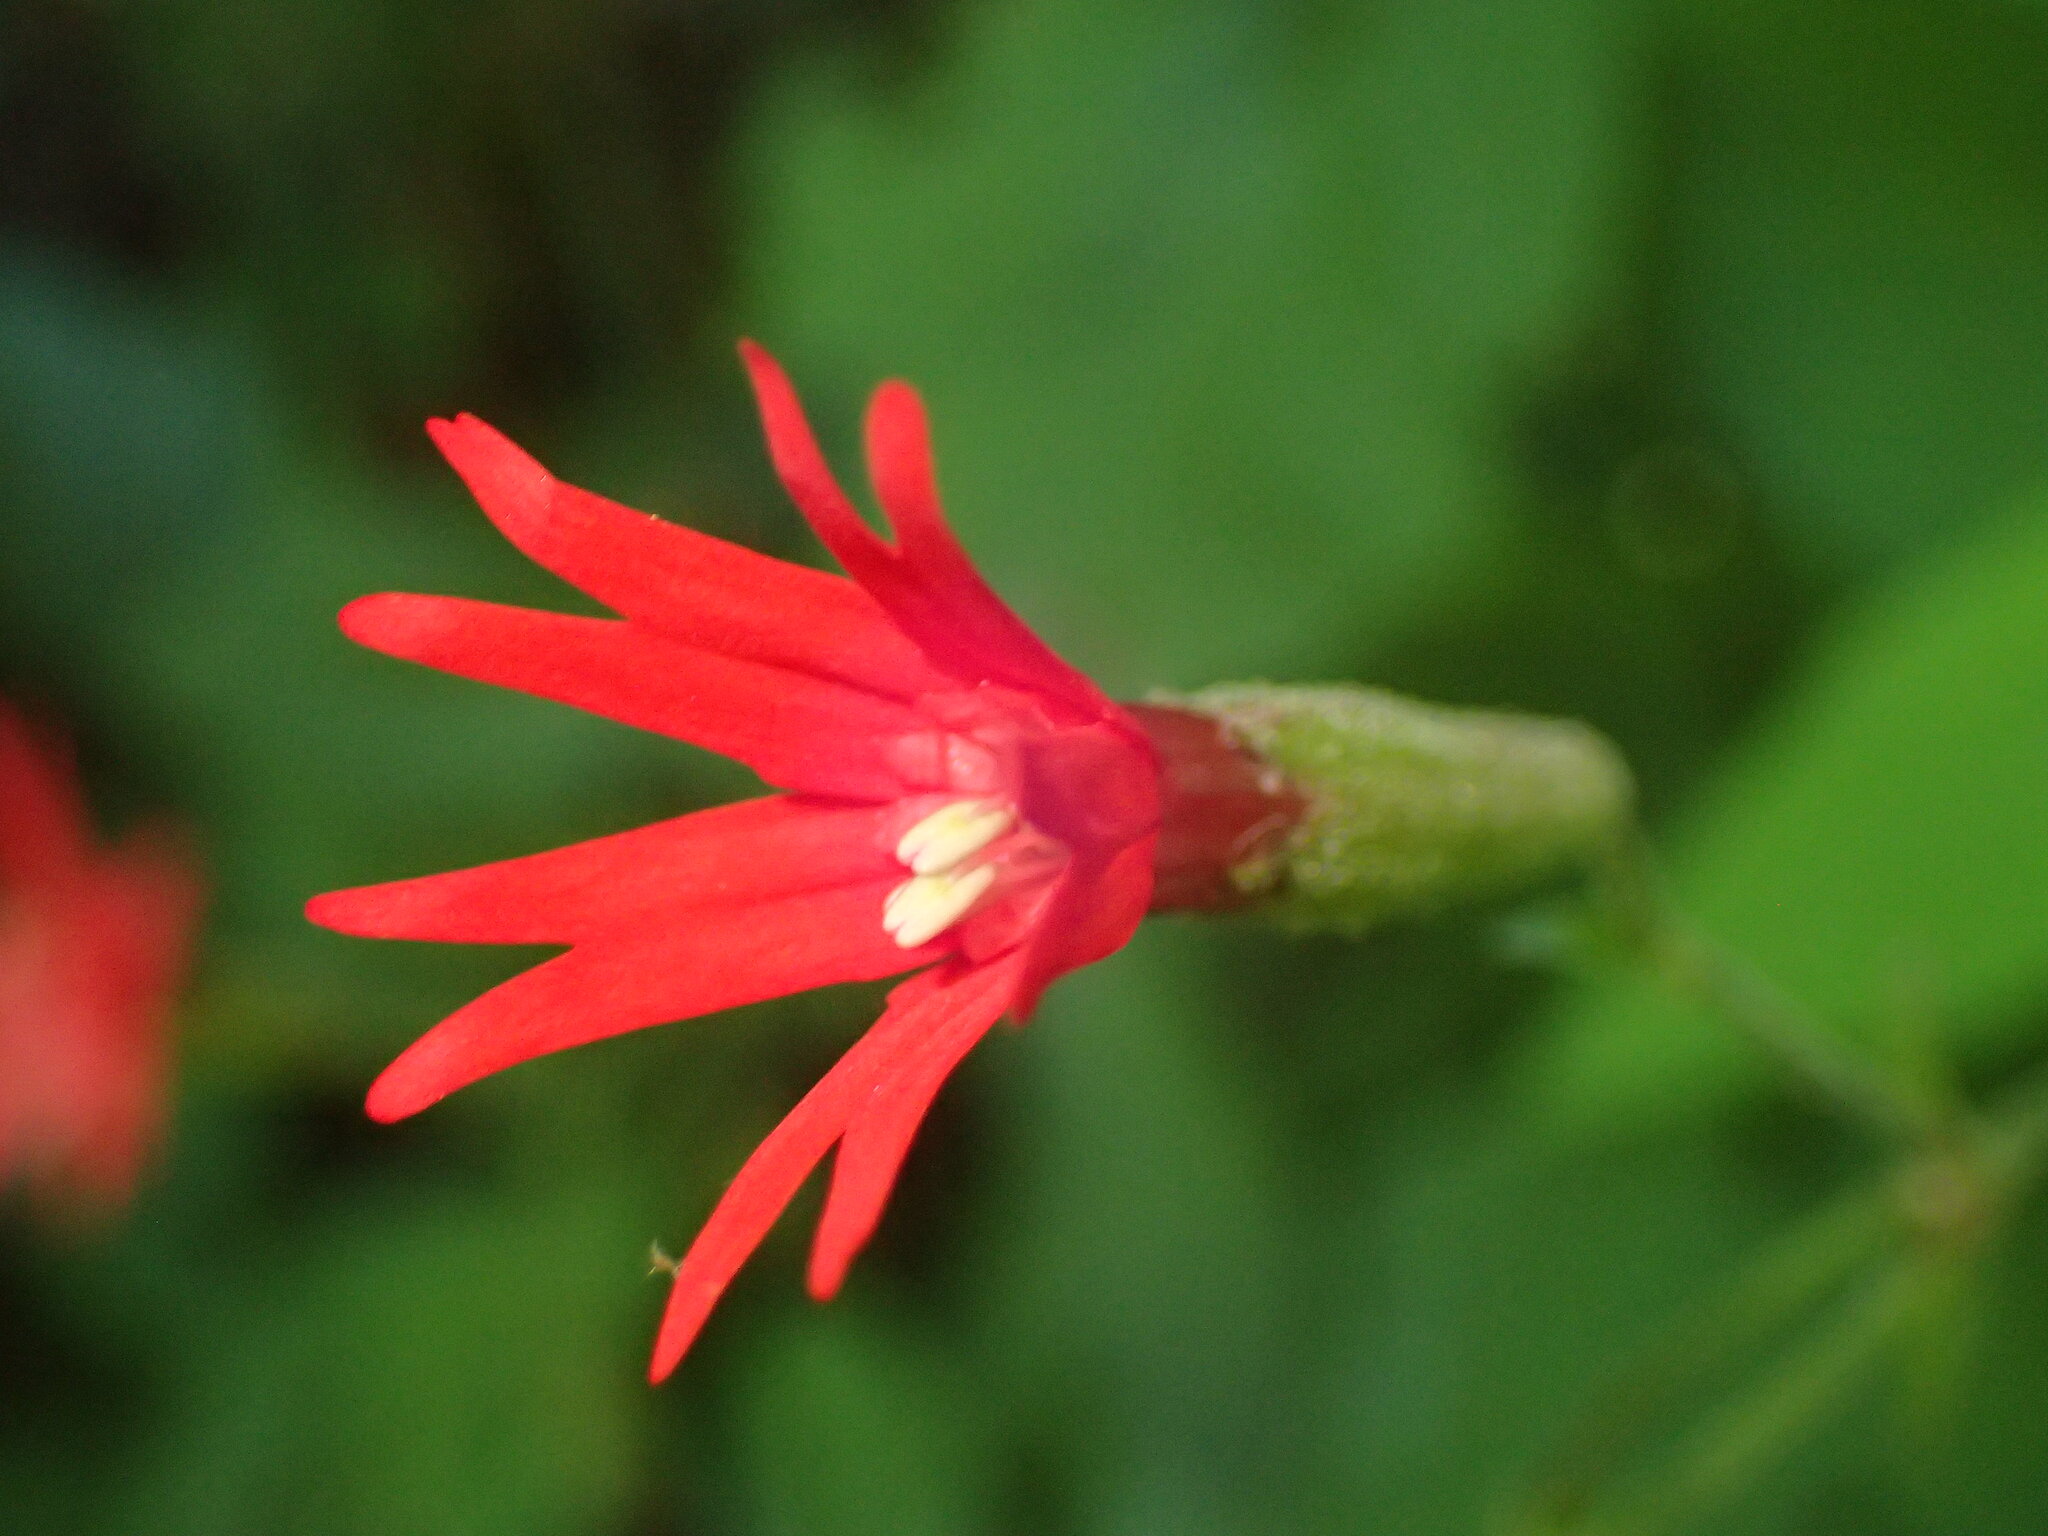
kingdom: Plantae
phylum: Tracheophyta
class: Magnoliopsida
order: Caryophyllales
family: Caryophyllaceae
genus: Silene
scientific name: Silene virginica
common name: Fire-pink
